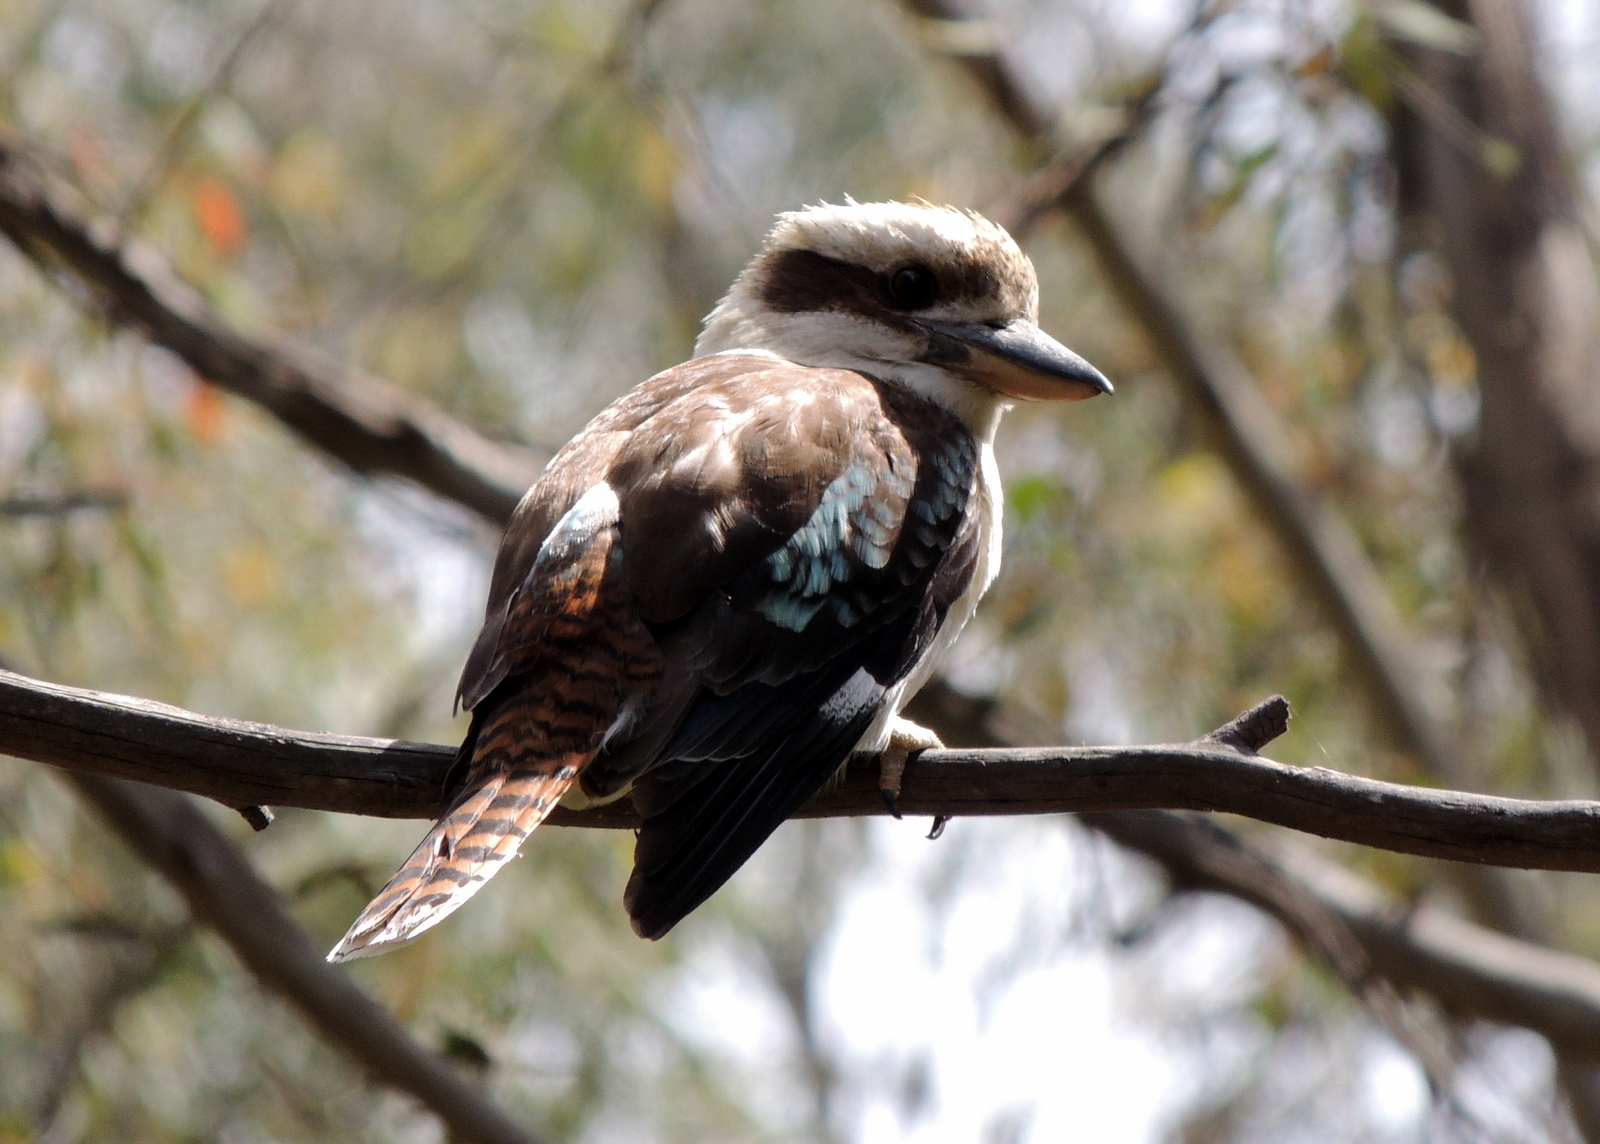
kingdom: Animalia
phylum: Chordata
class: Aves
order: Coraciiformes
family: Alcedinidae
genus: Dacelo
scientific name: Dacelo novaeguineae
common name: Laughing kookaburra
